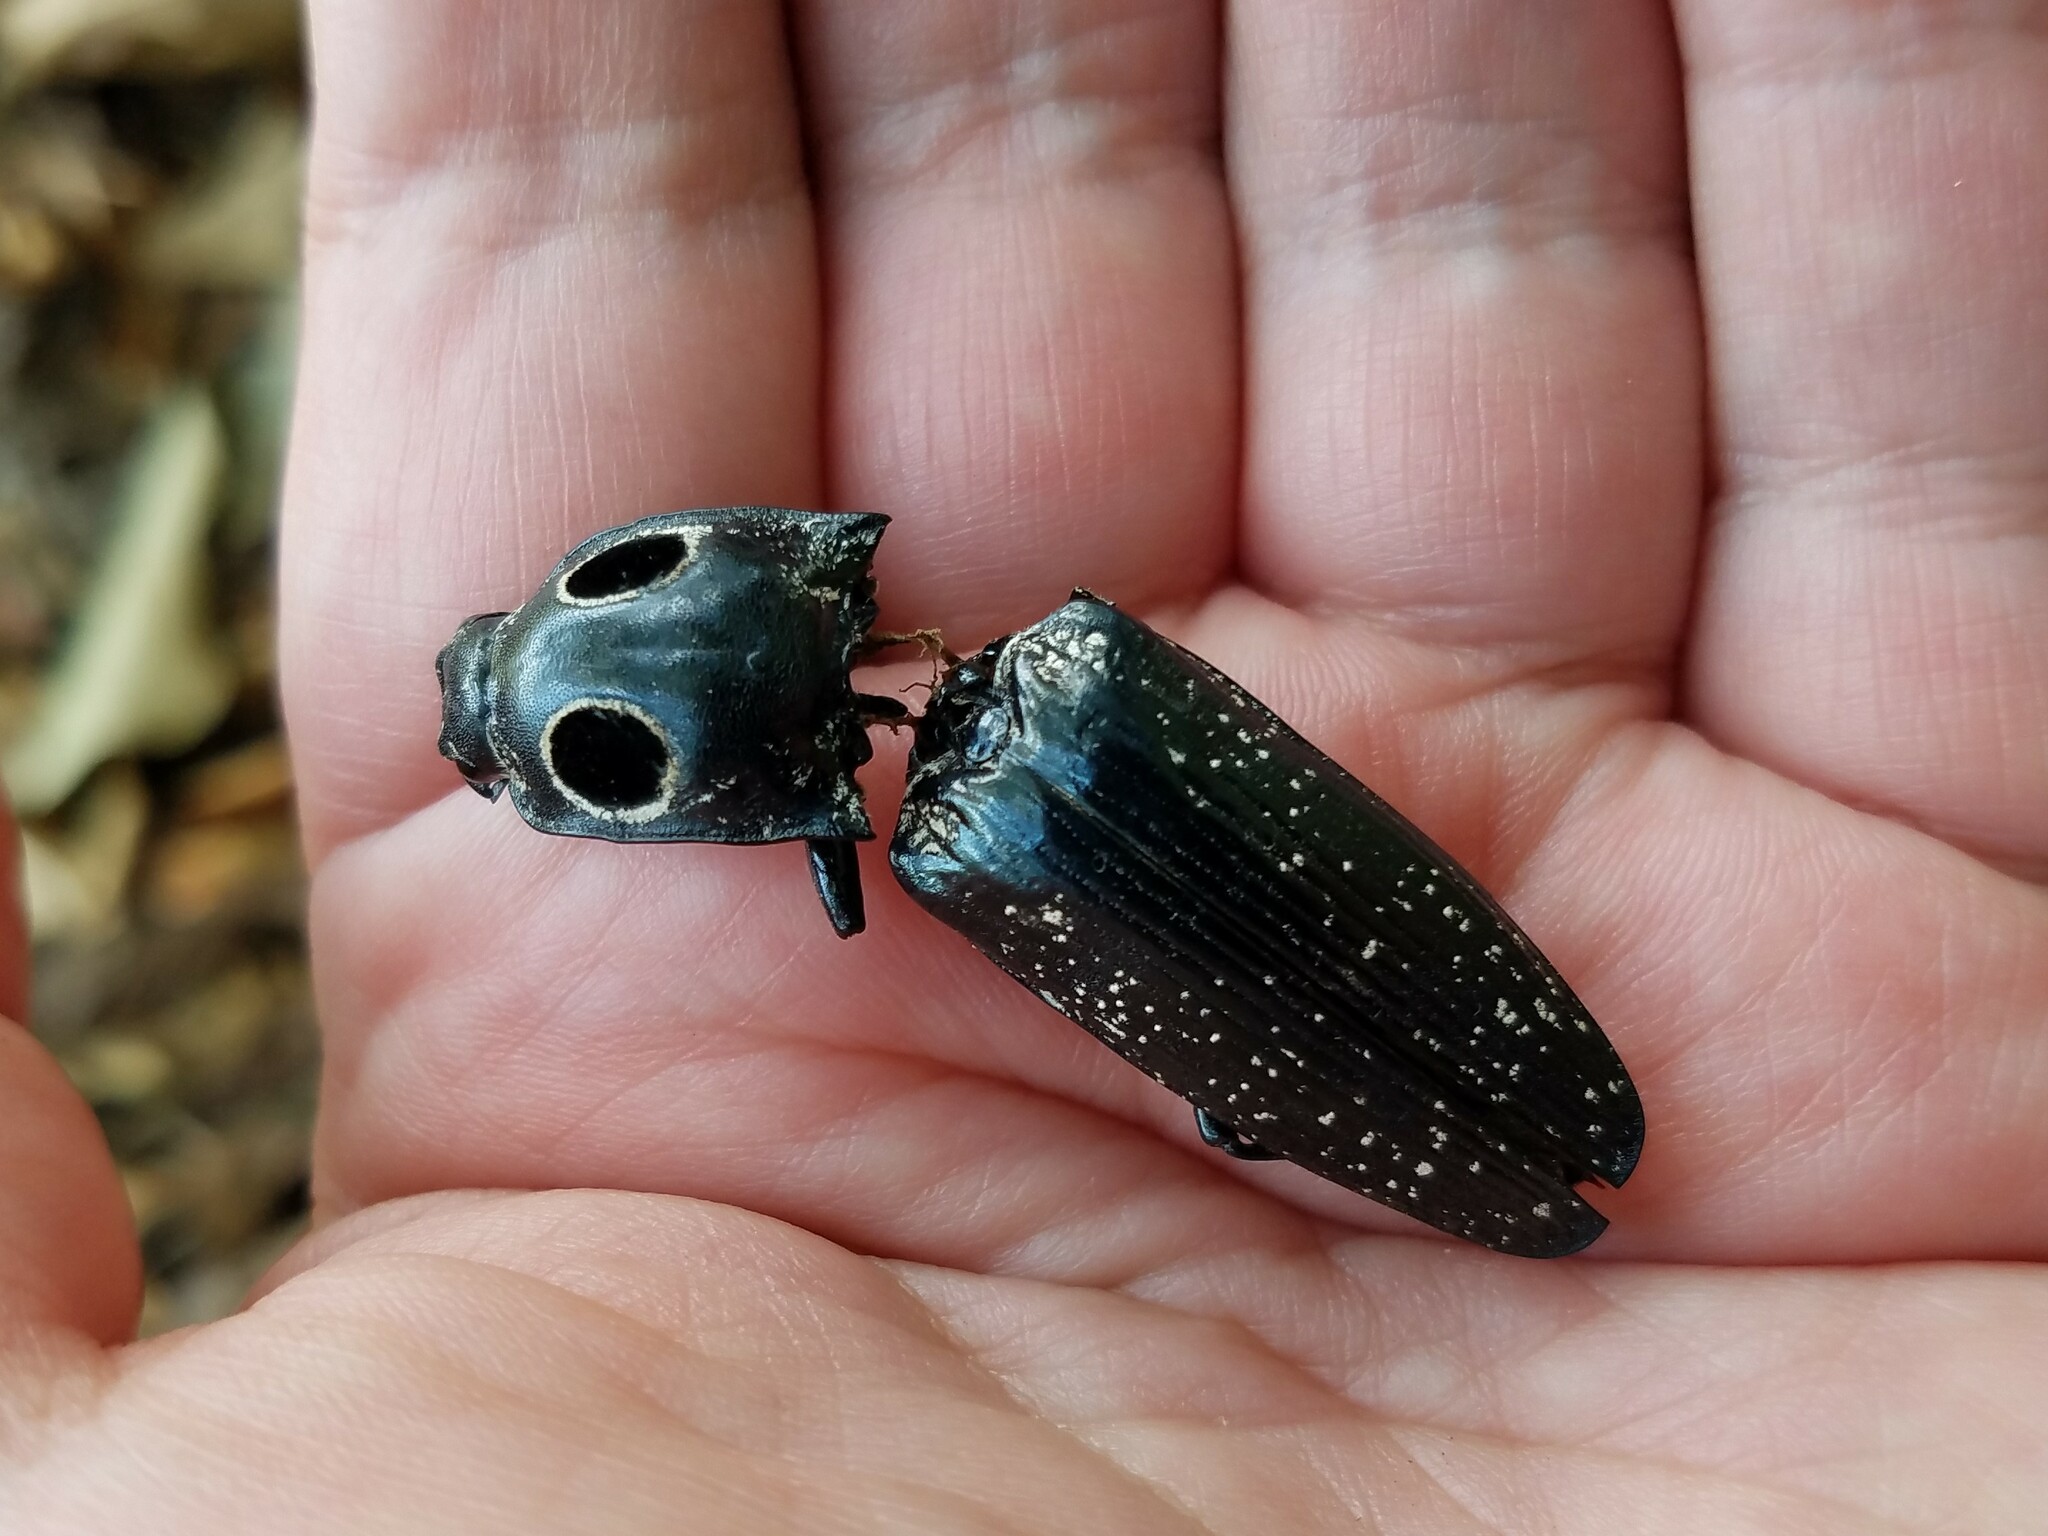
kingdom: Animalia
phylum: Arthropoda
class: Insecta
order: Coleoptera
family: Elateridae
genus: Alaus
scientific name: Alaus oculatus
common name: Eastern eyed click beetle
